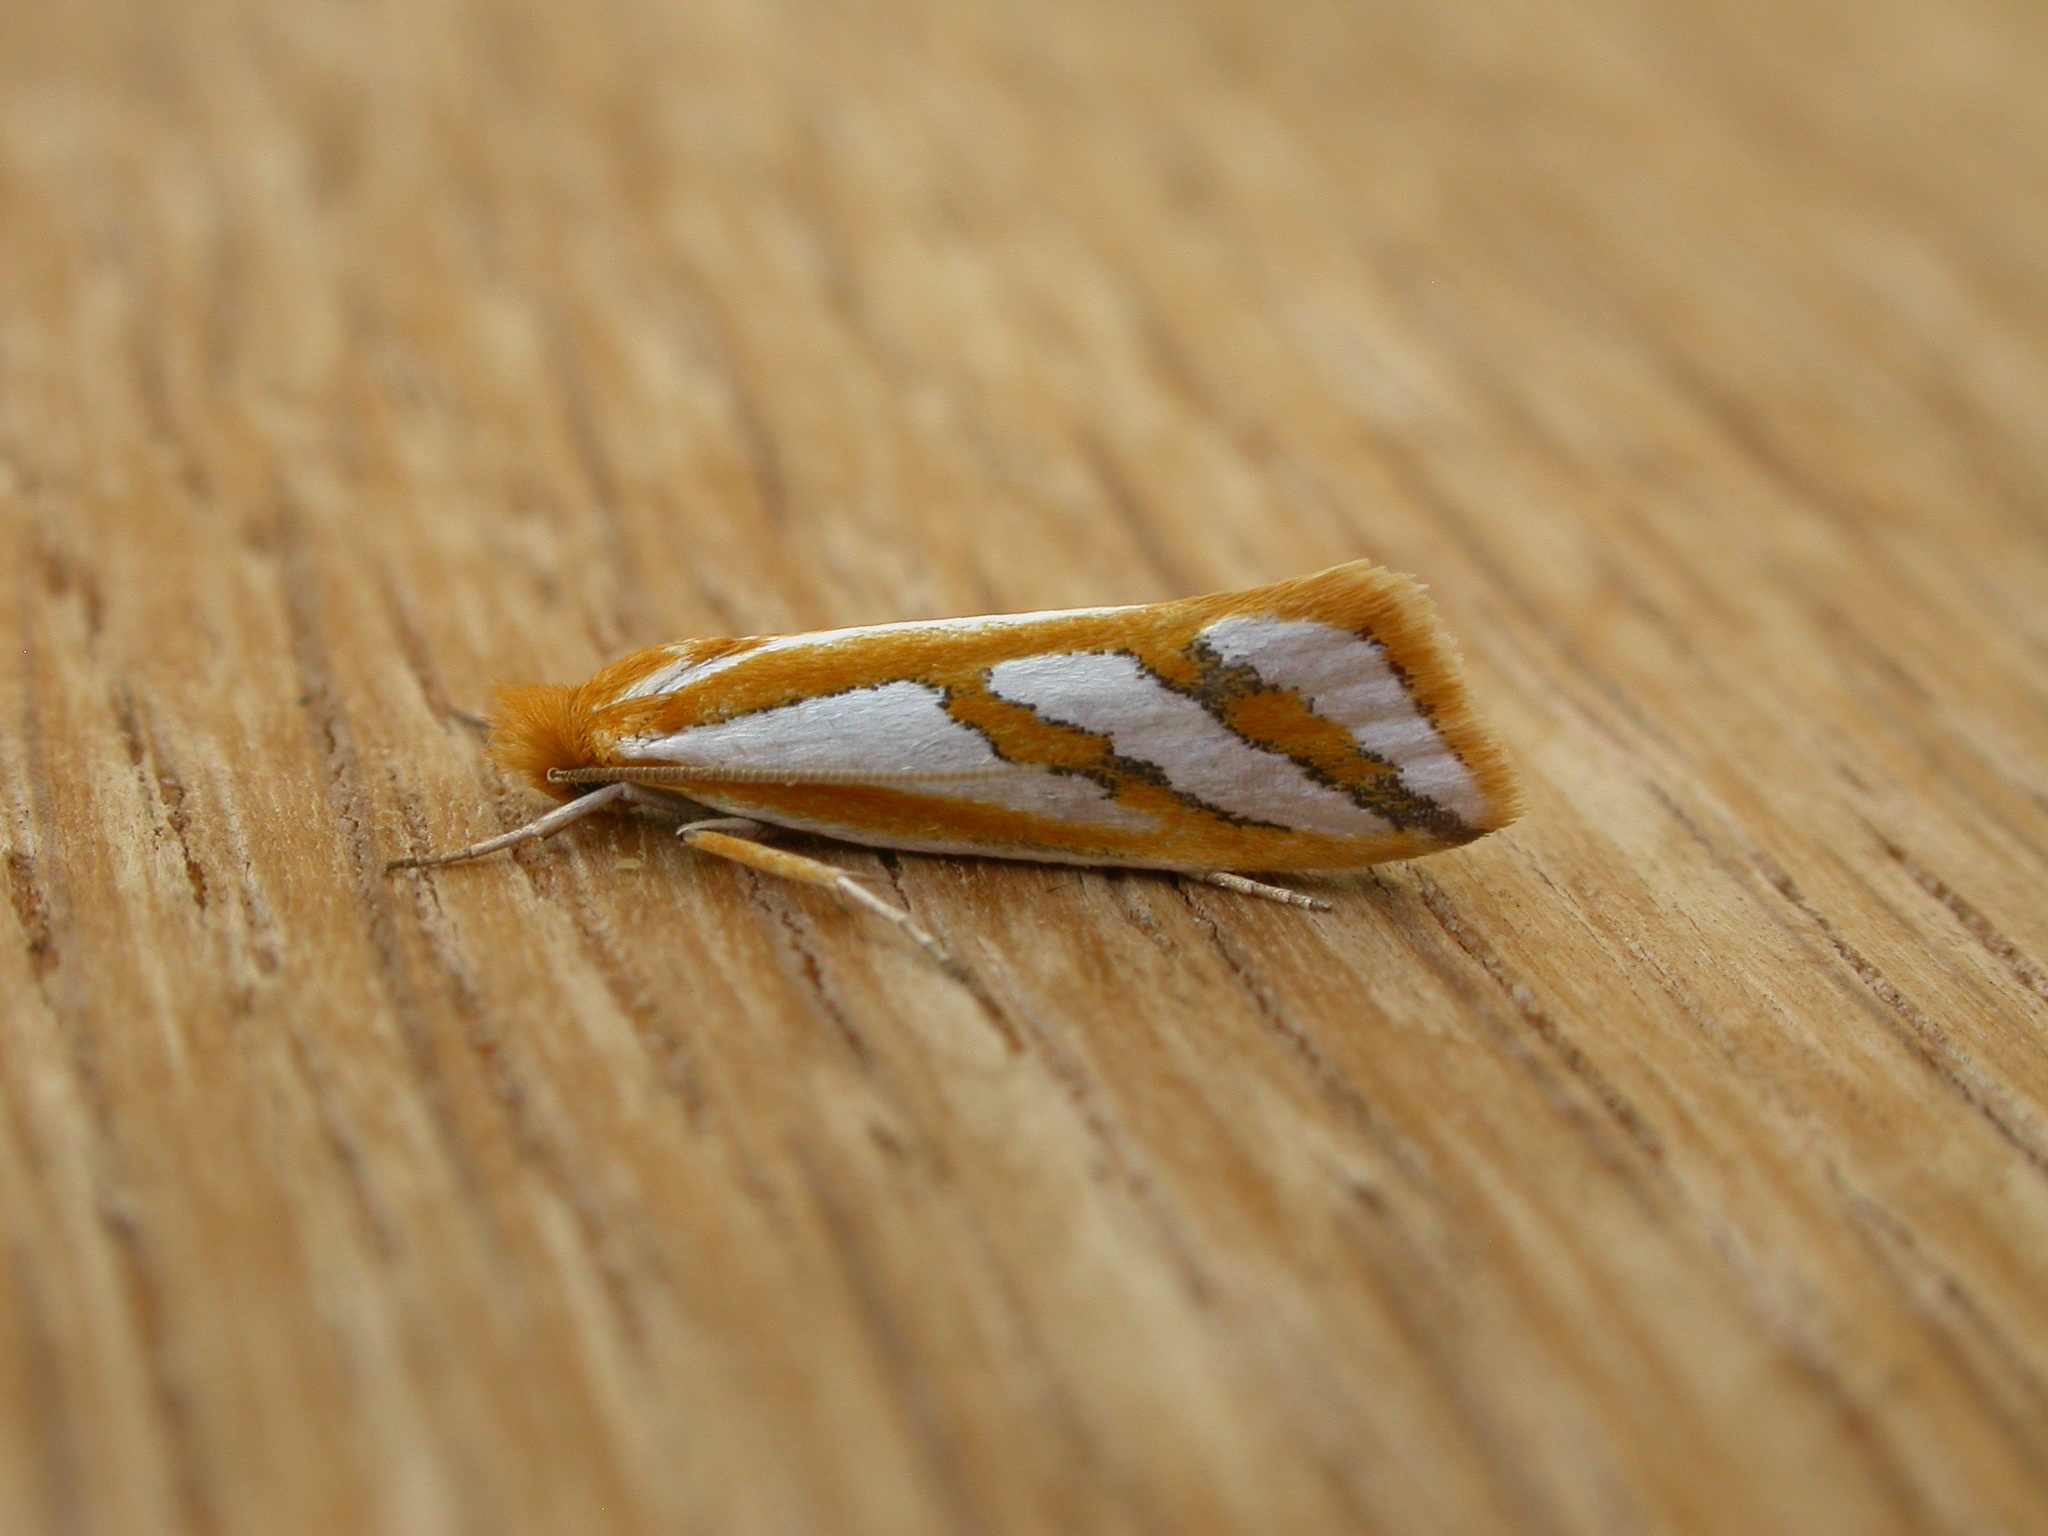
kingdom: Animalia
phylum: Arthropoda
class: Insecta
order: Lepidoptera
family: Depressariidae
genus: Thudaca
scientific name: Thudaca mimodora
